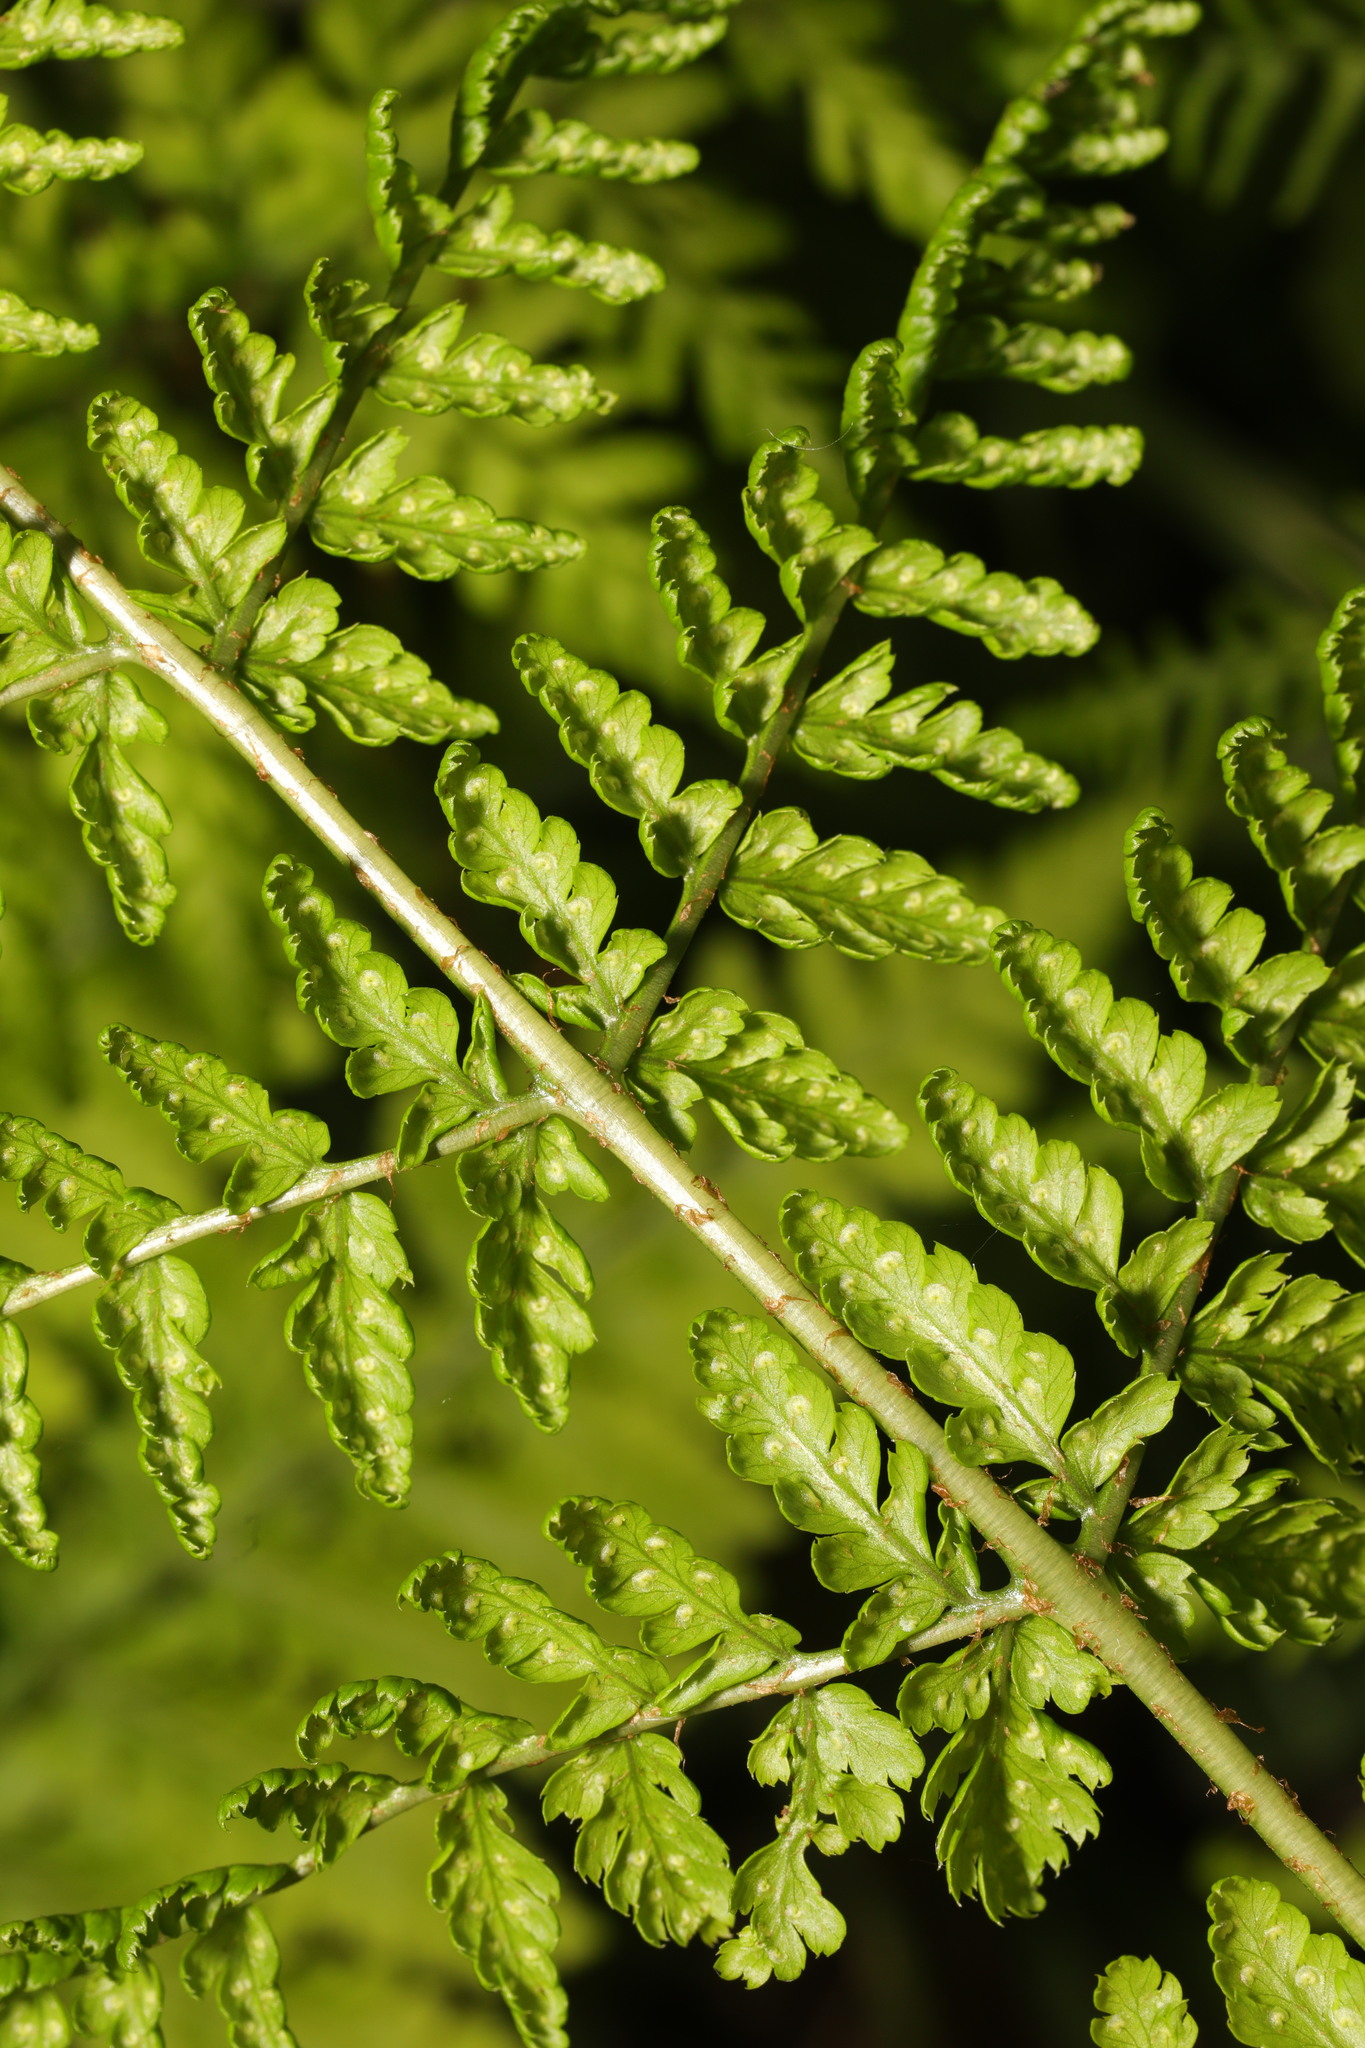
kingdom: Plantae
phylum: Tracheophyta
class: Polypodiopsida
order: Polypodiales
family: Dryopteridaceae
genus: Dryopteris
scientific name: Dryopteris dilatata
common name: Broad buckler-fern
